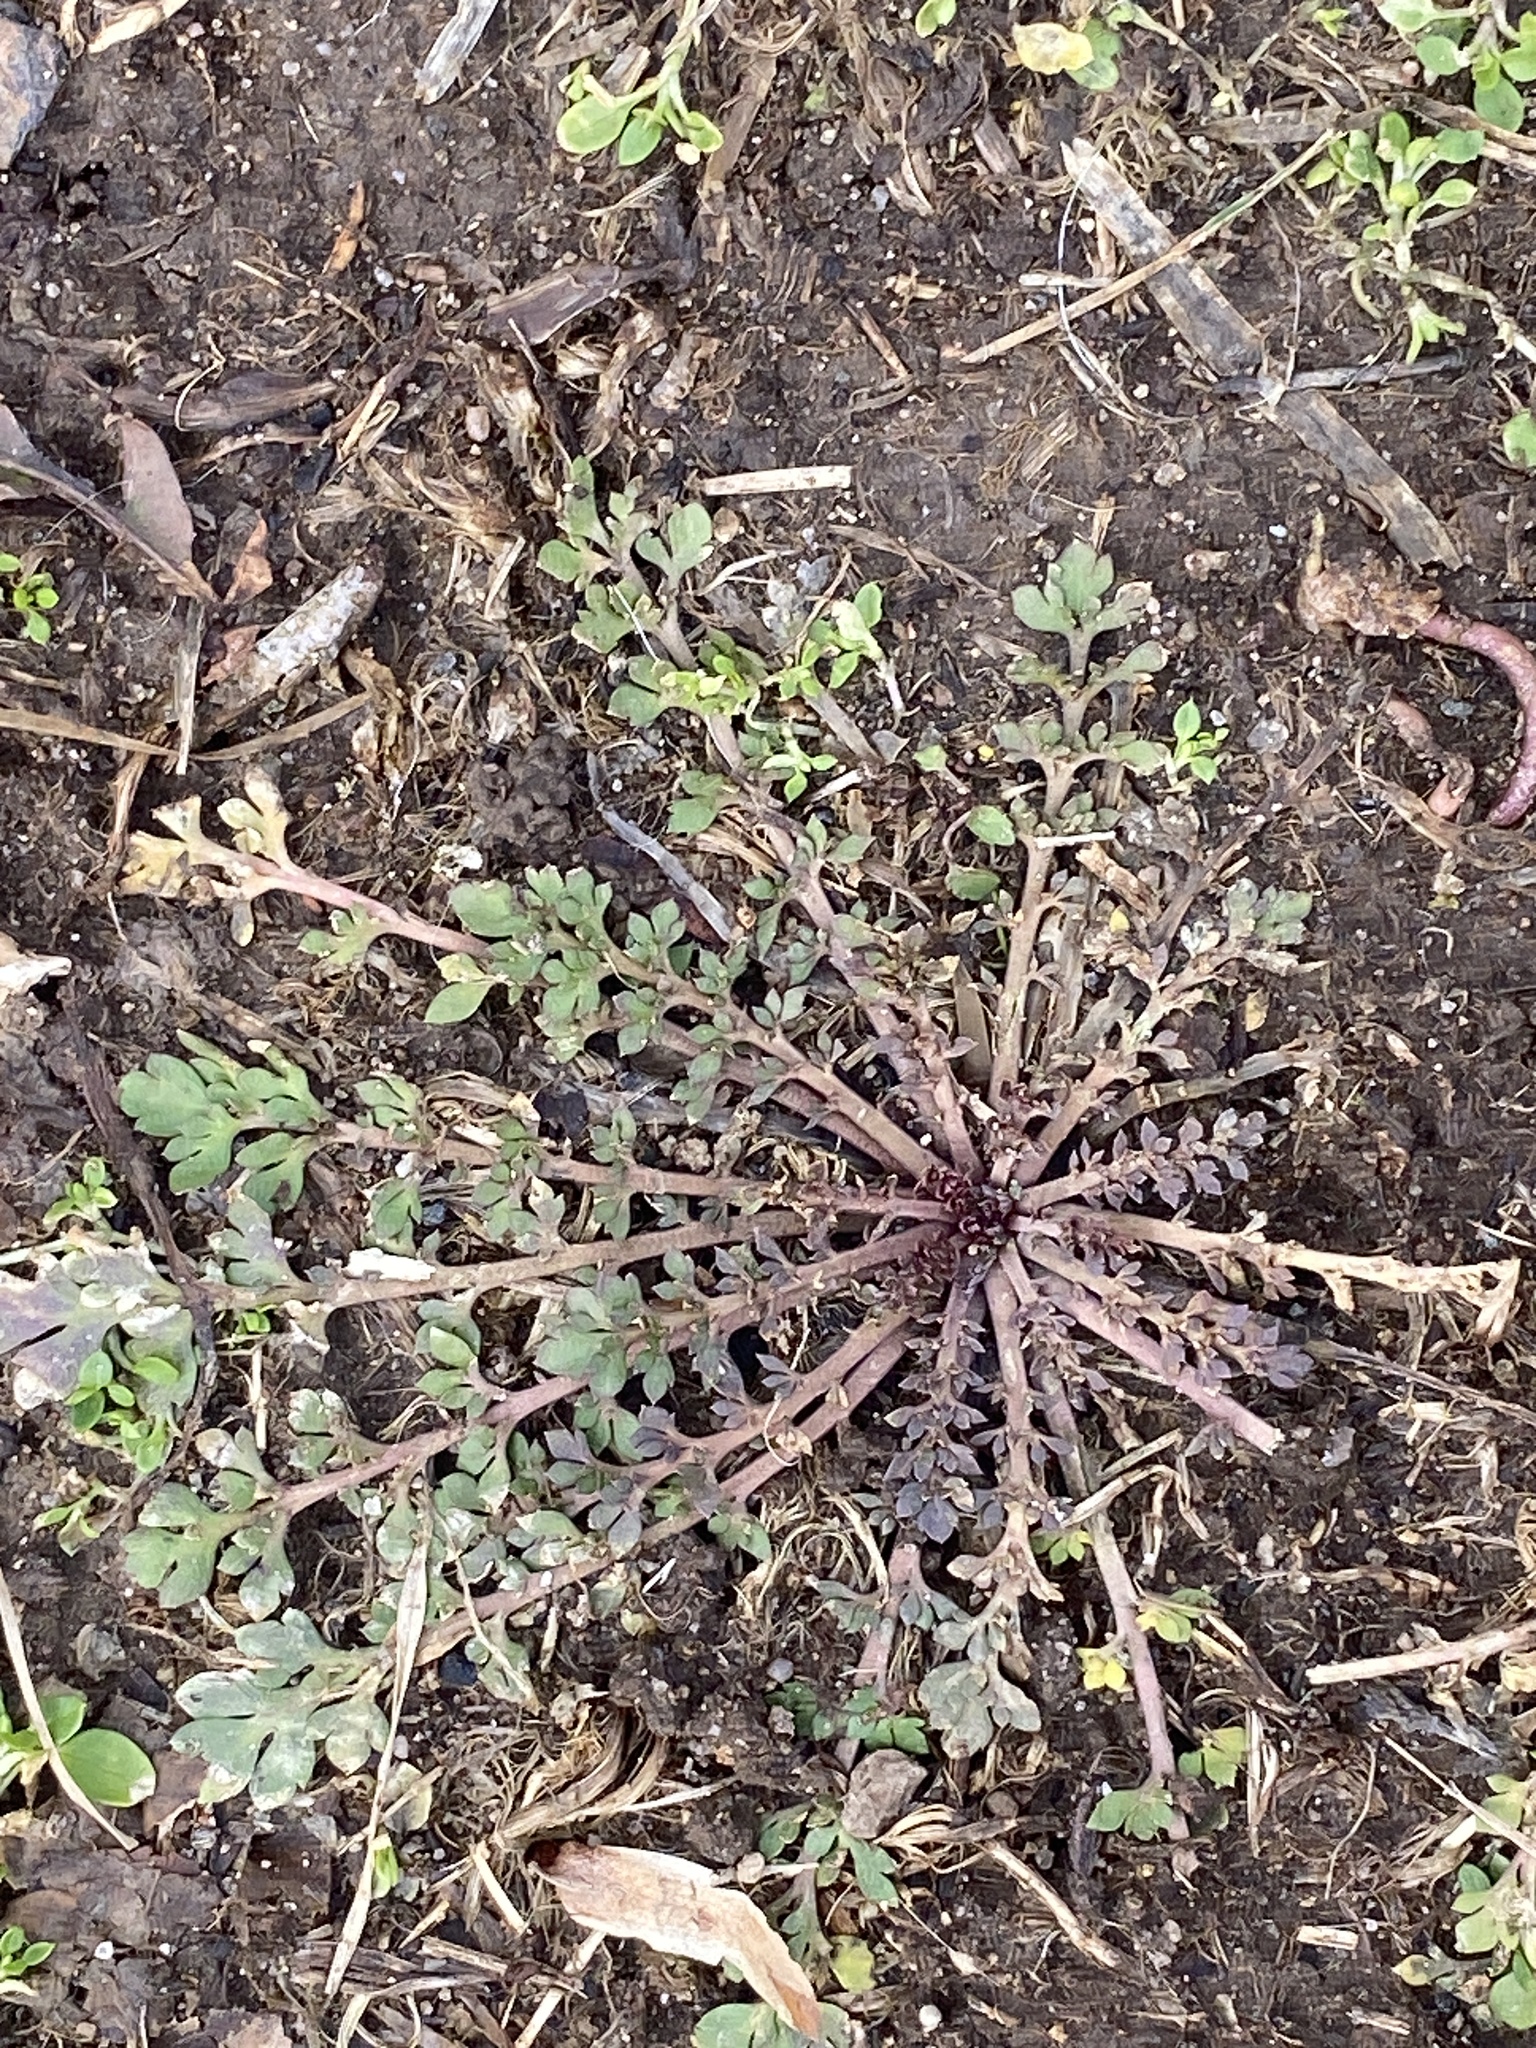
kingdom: Plantae
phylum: Tracheophyta
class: Magnoliopsida
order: Brassicales
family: Brassicaceae
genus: Lepidium
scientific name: Lepidium didymum
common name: Lesser swinecress
